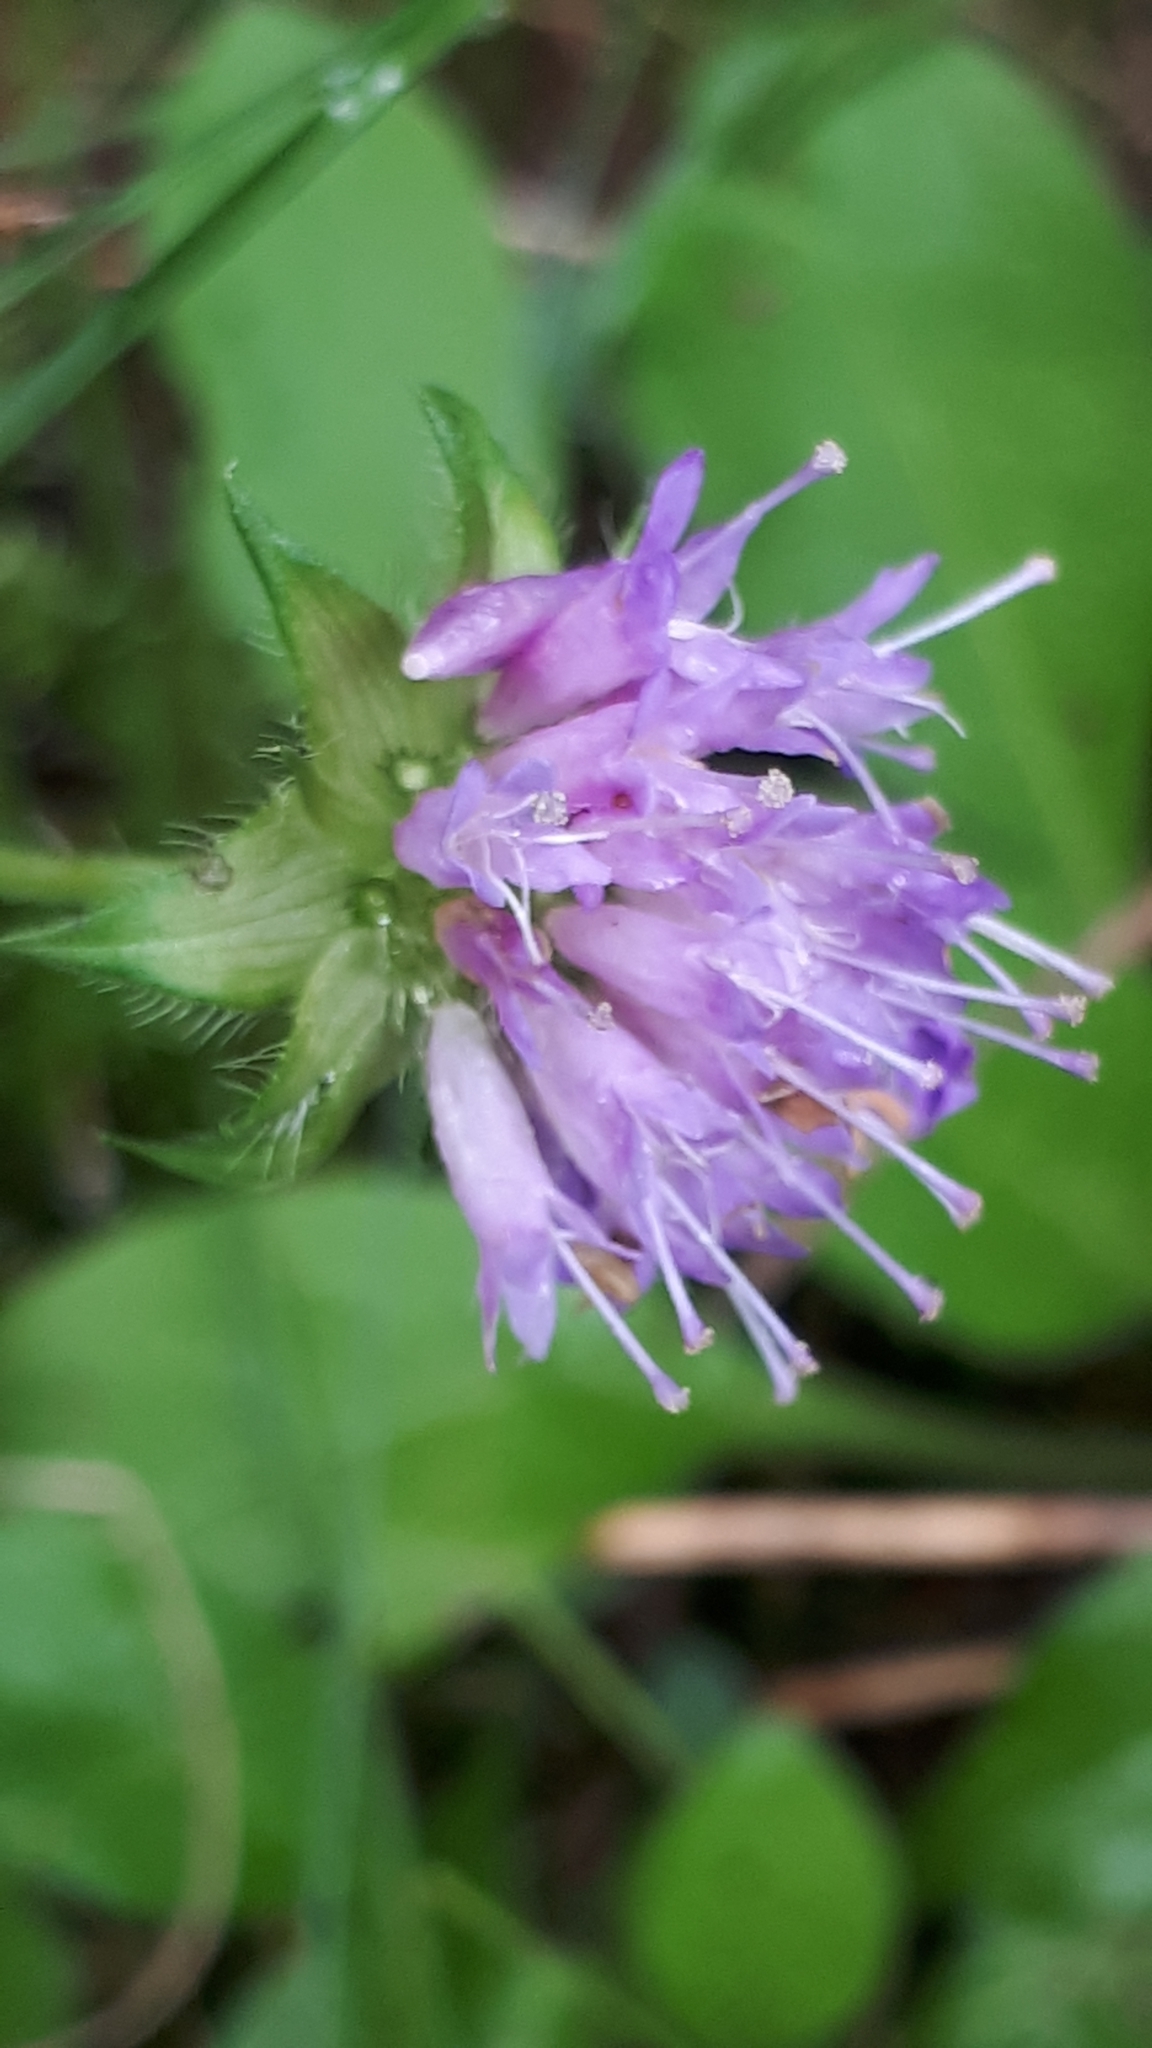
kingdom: Plantae
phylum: Tracheophyta
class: Magnoliopsida
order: Dipsacales
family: Caprifoliaceae
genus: Knautia
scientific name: Knautia dipsacifolia
